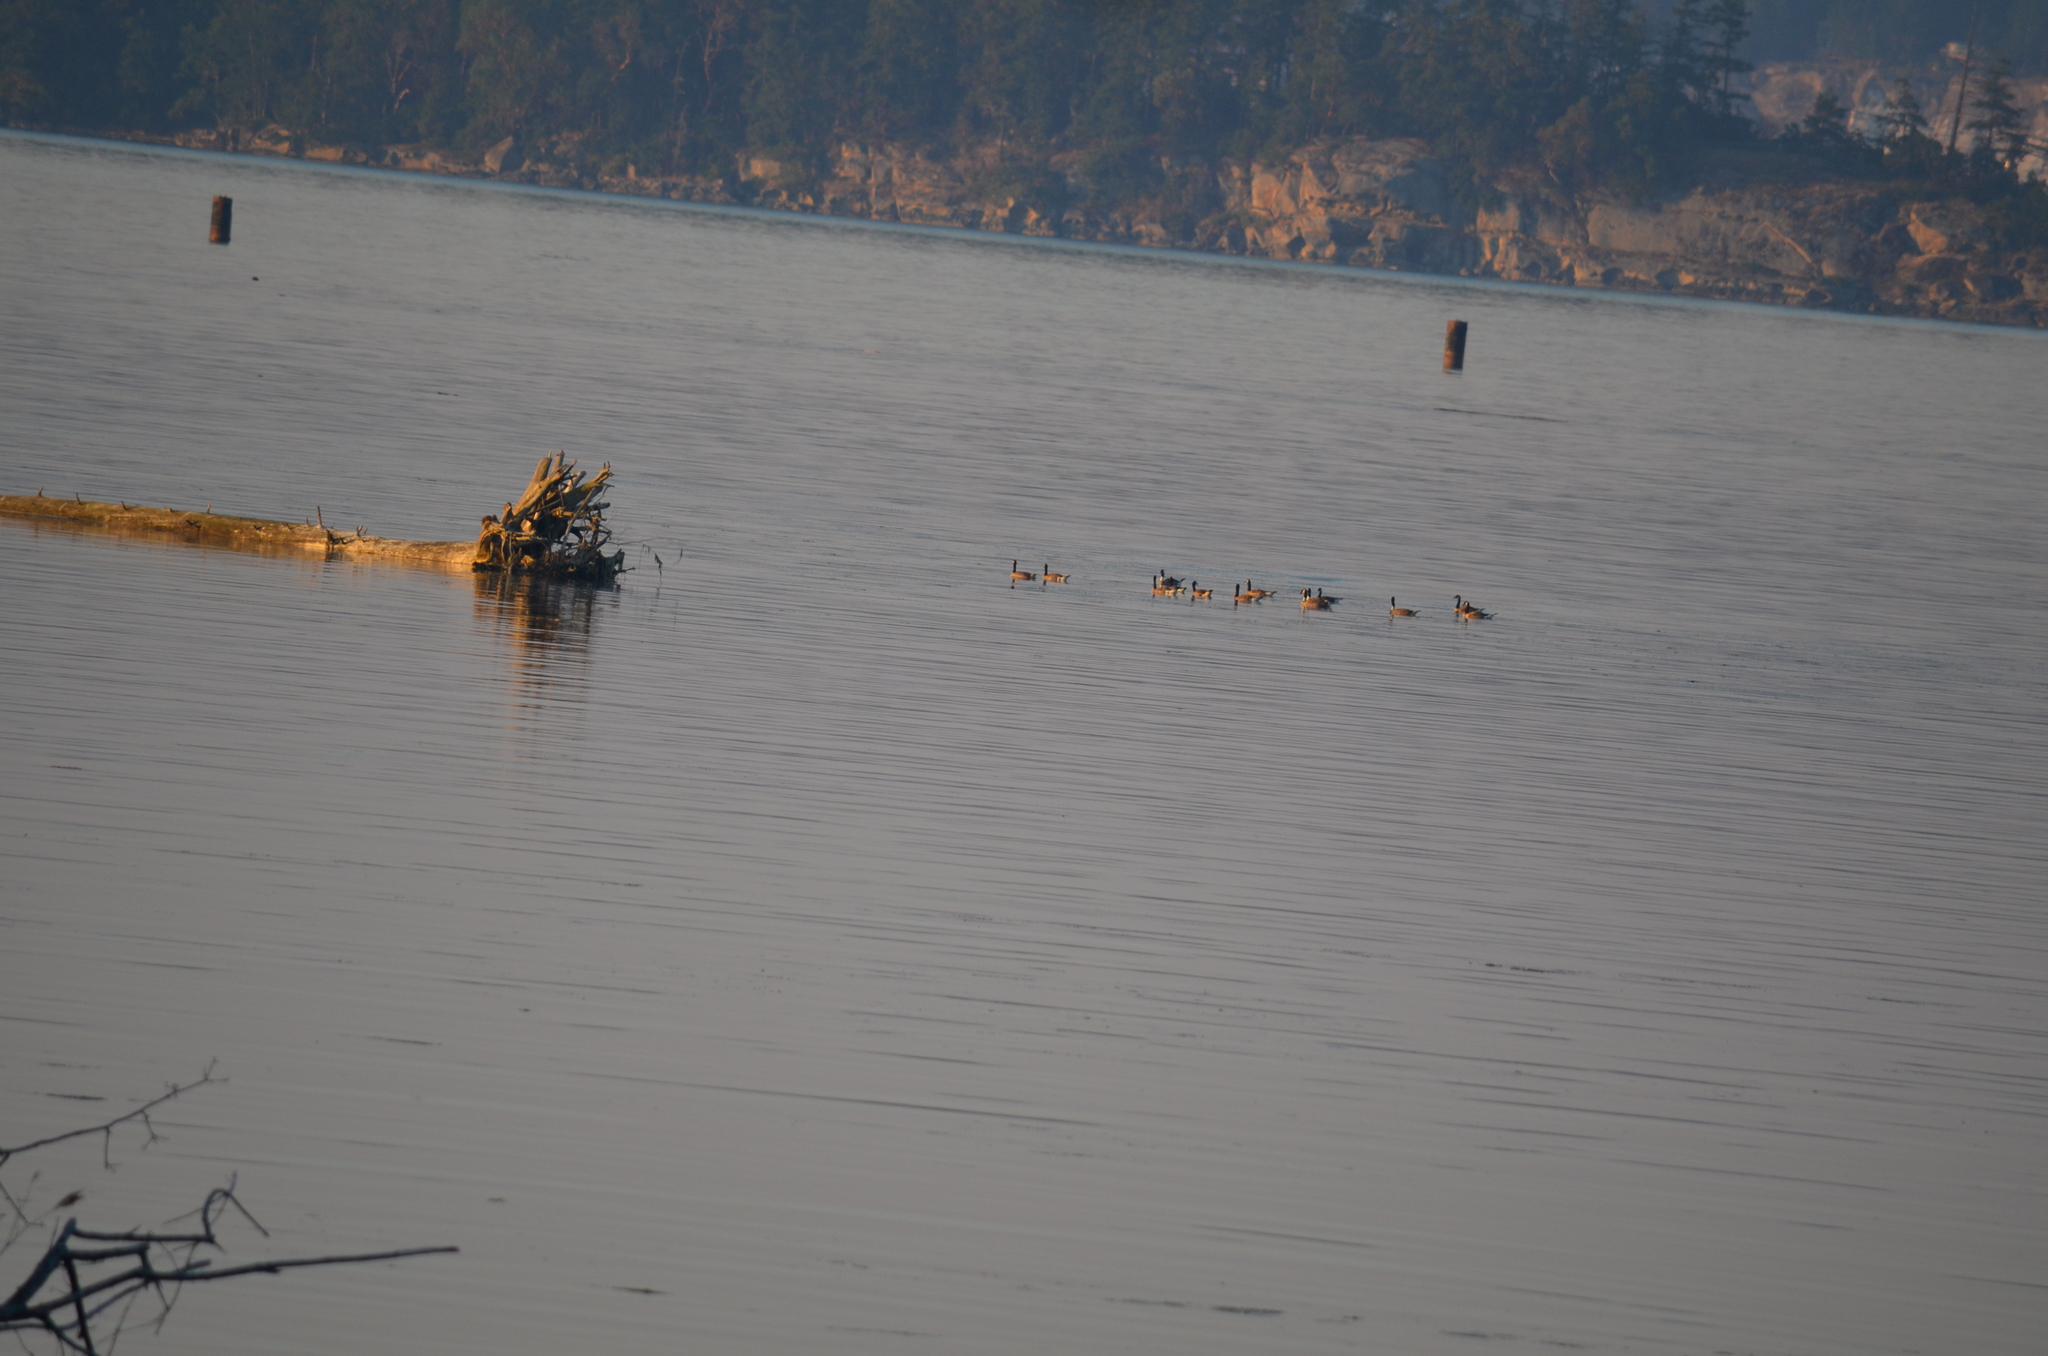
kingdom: Animalia
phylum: Chordata
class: Aves
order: Anseriformes
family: Anatidae
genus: Branta
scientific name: Branta canadensis
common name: Canada goose
